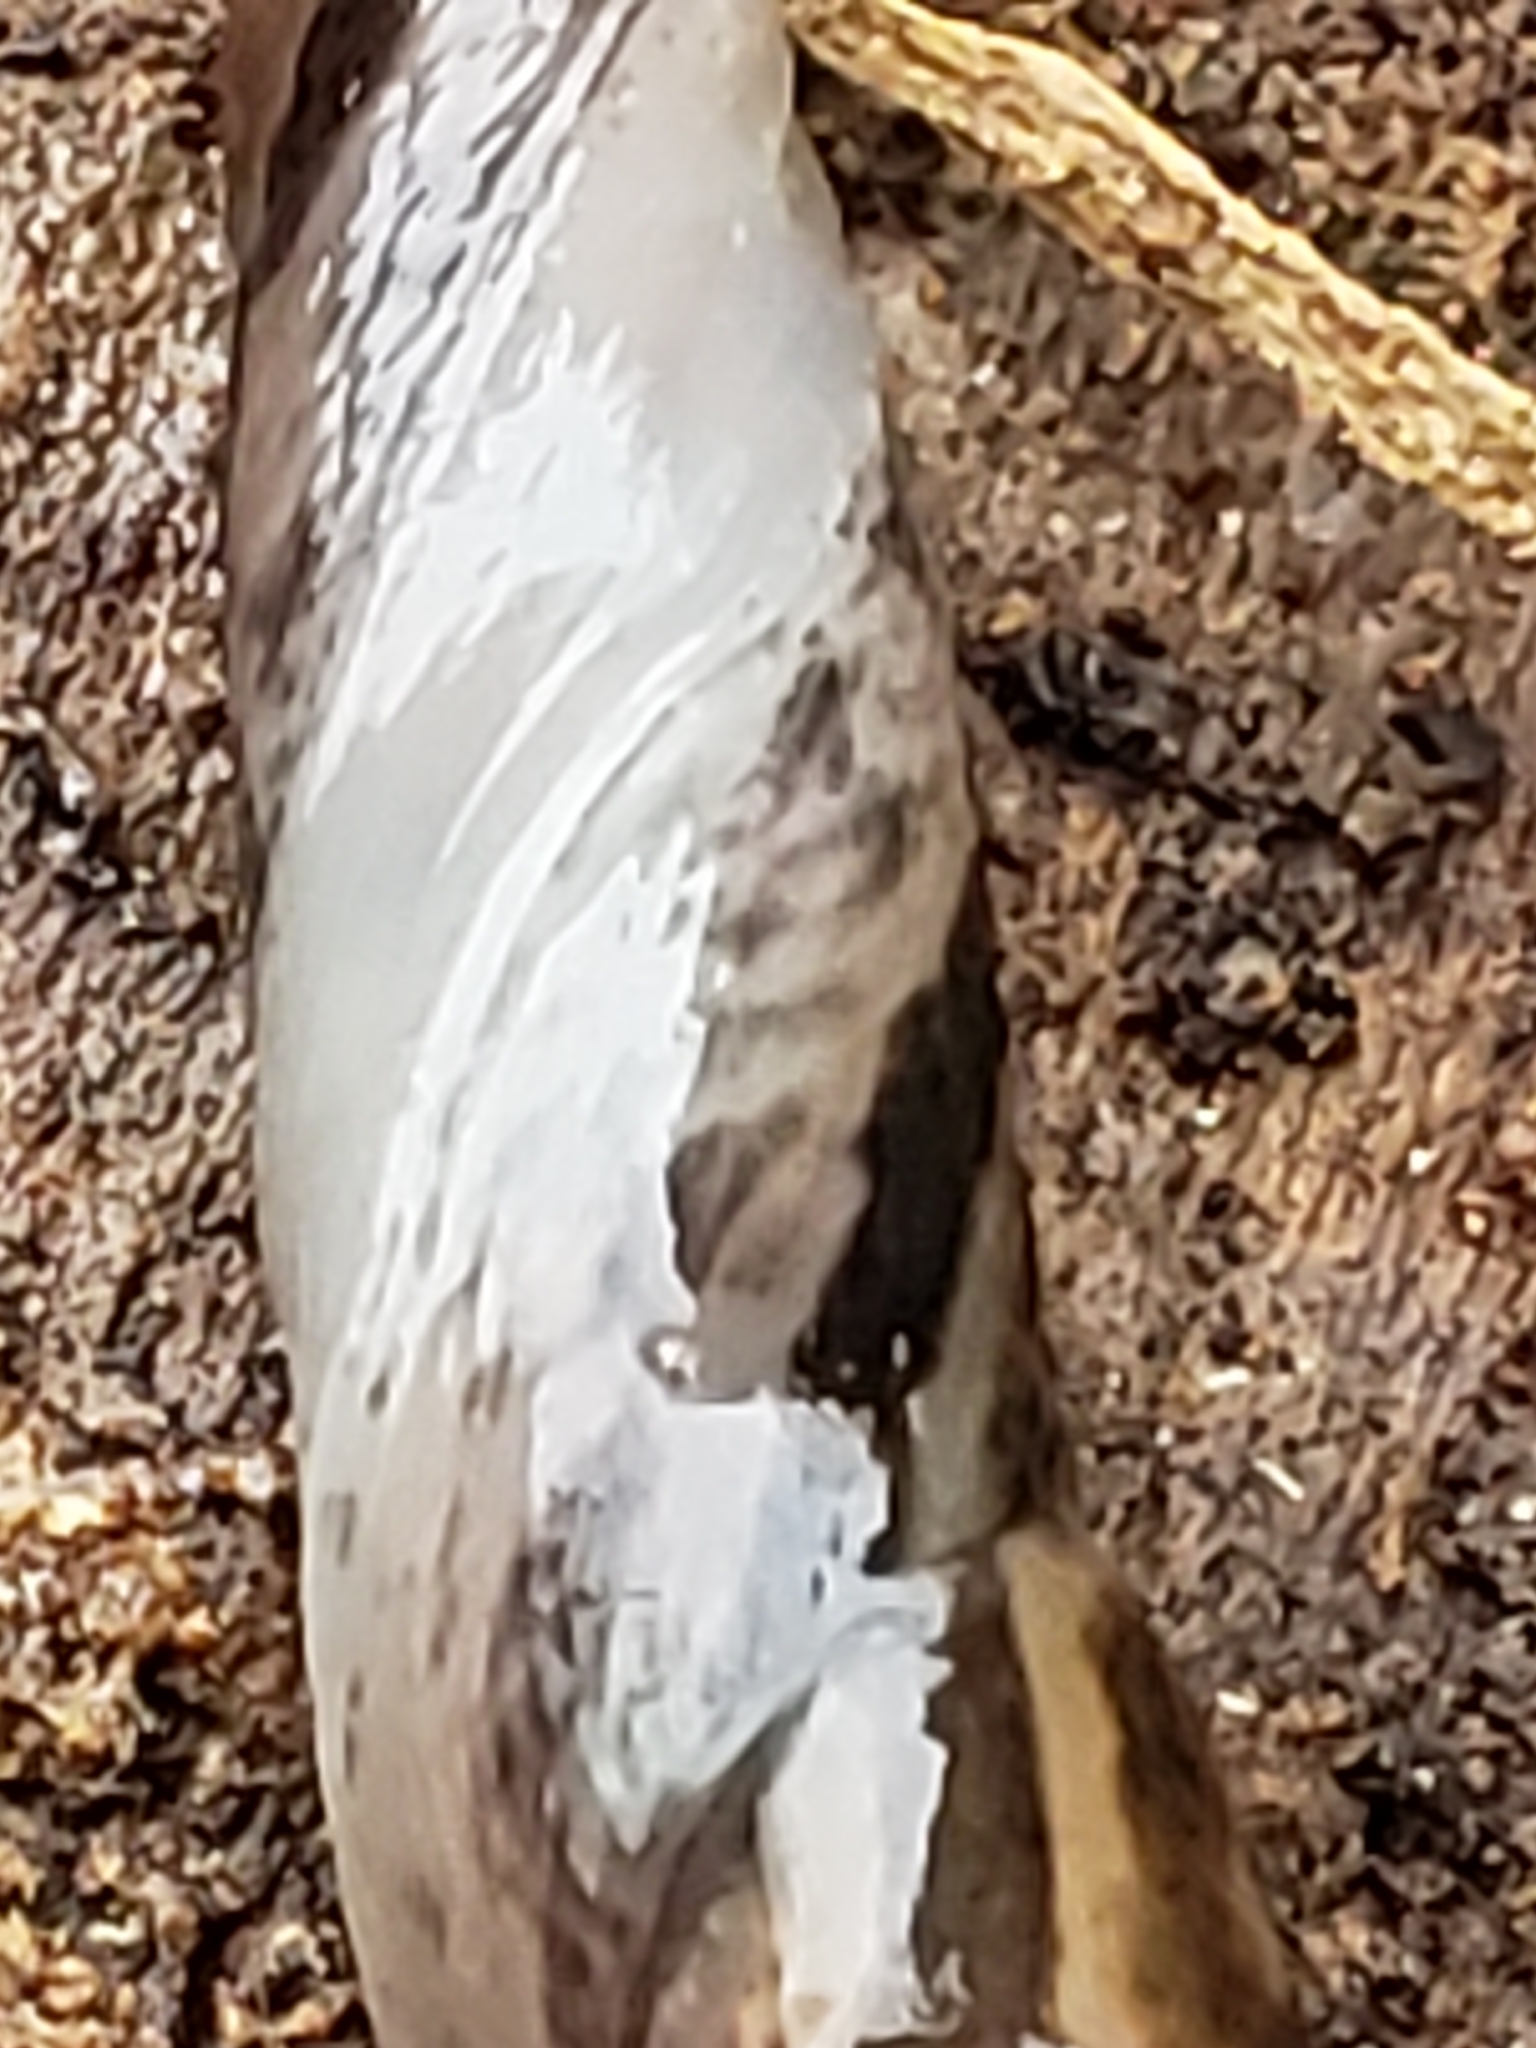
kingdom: Animalia
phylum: Mollusca
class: Gastropoda
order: Stylommatophora
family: Limacidae
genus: Limax
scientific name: Limax maximus
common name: Great grey slug
